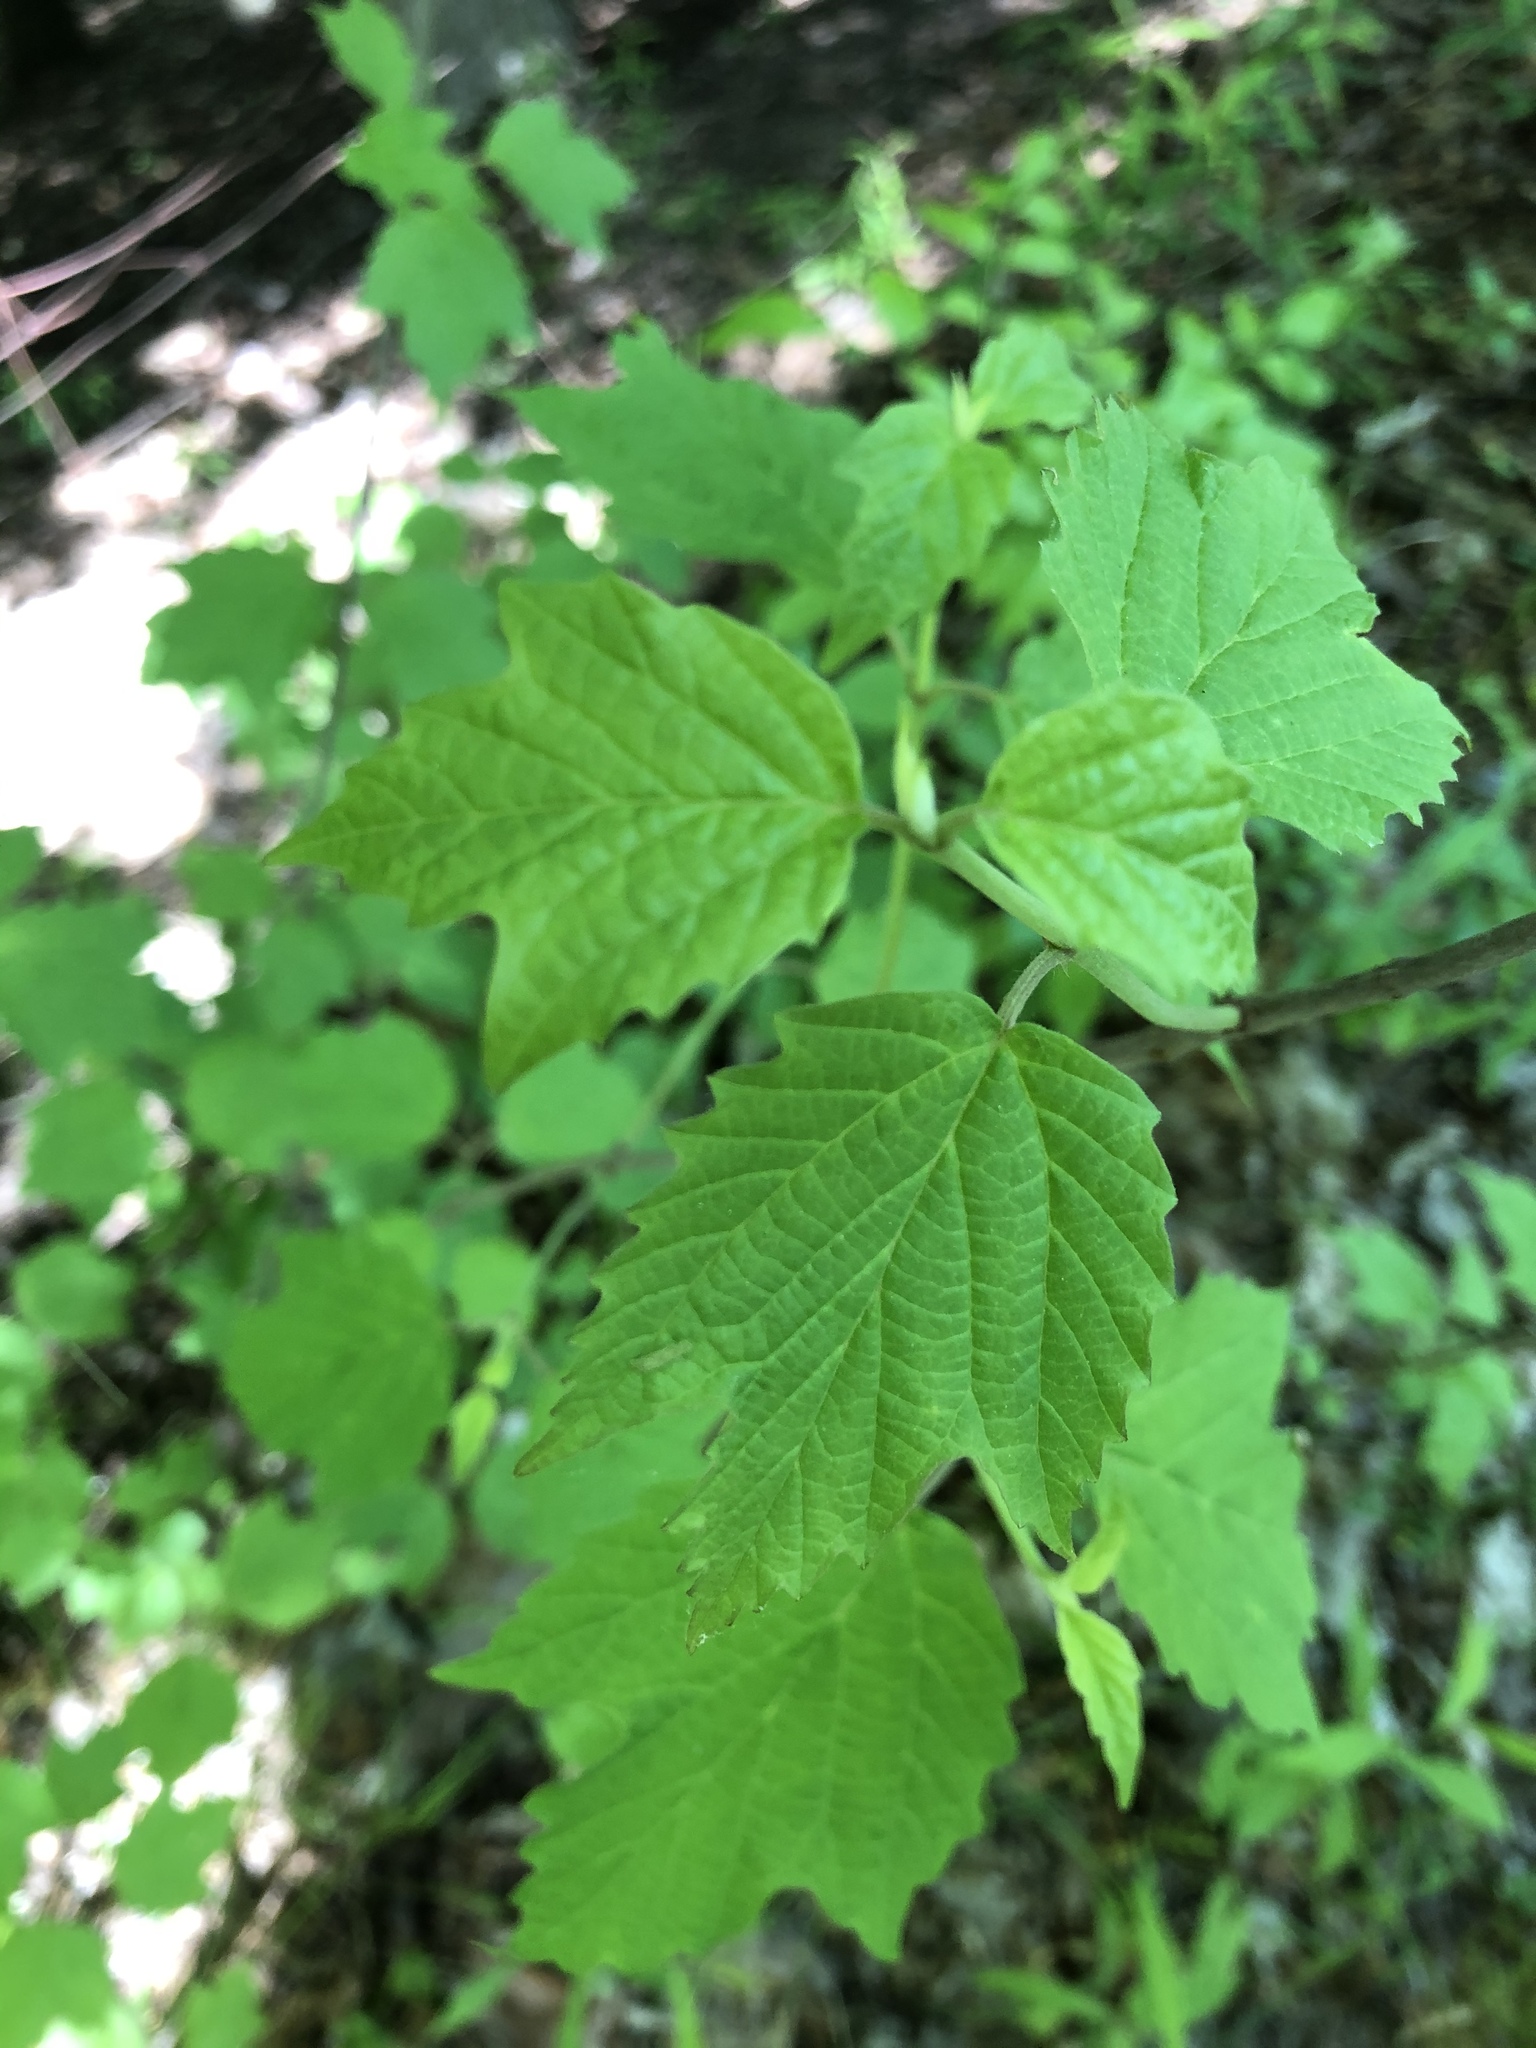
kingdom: Plantae
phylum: Tracheophyta
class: Magnoliopsida
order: Dipsacales
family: Viburnaceae
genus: Viburnum
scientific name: Viburnum acerifolium
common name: Dockmackie
